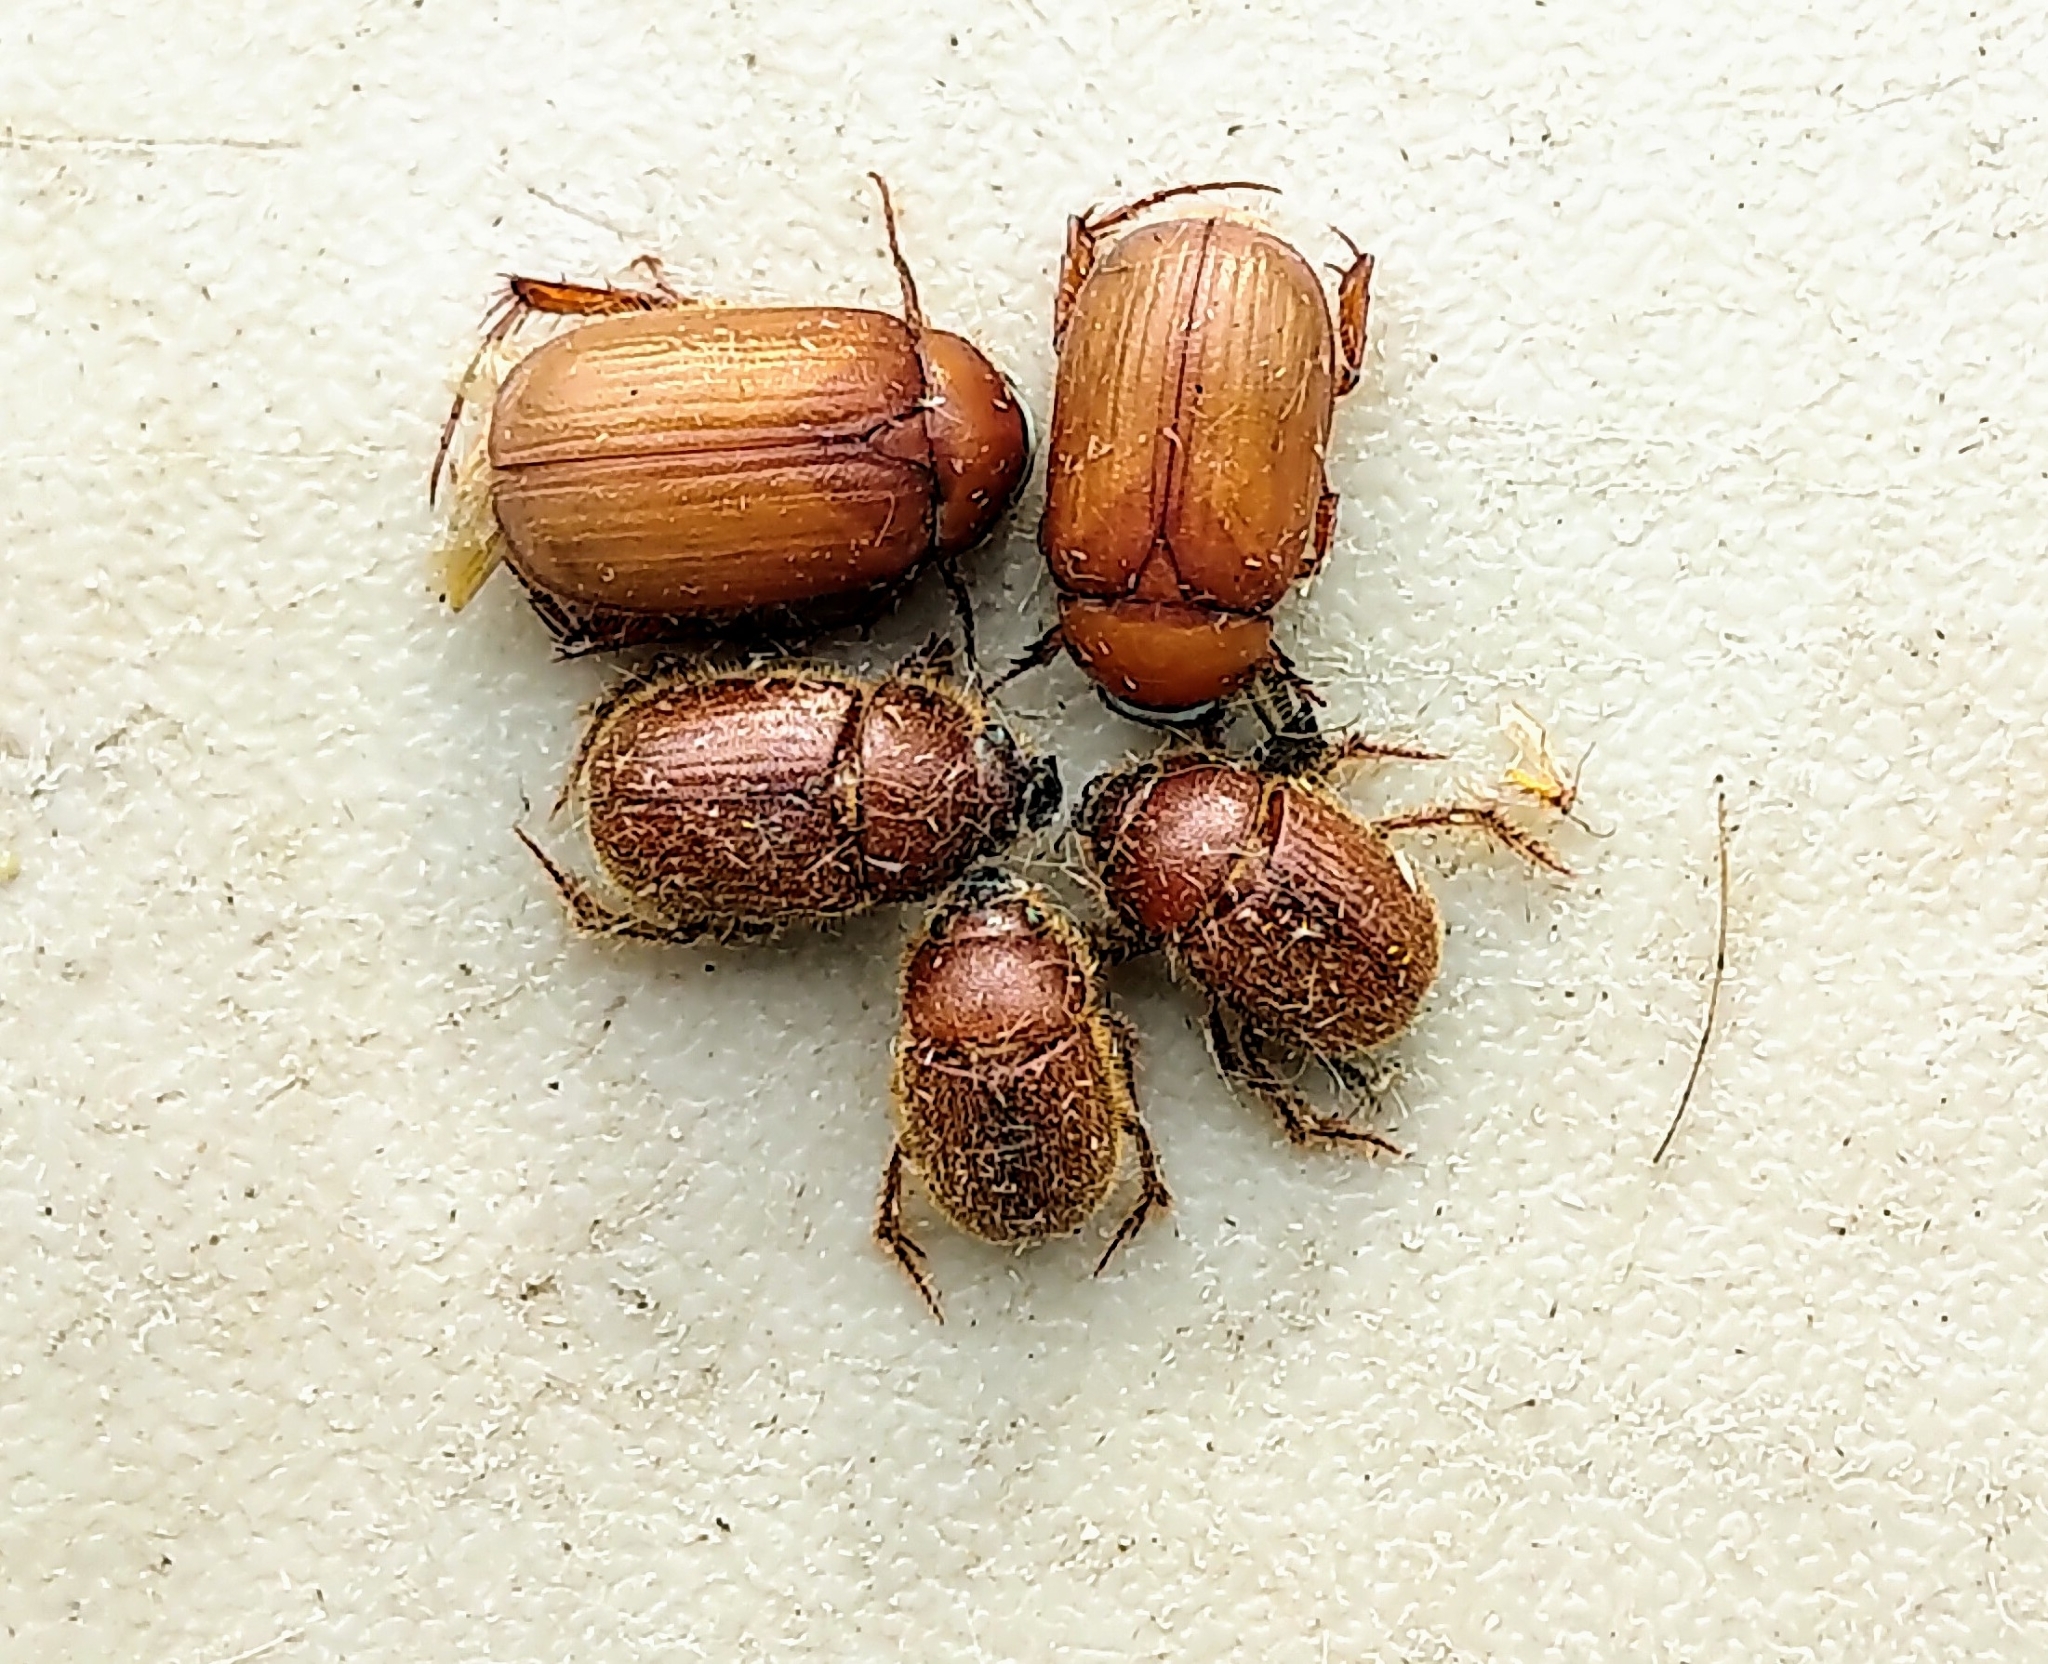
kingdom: Animalia
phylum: Arthropoda
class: Insecta
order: Coleoptera
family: Scarabaeidae
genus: Serica
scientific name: Serica curvata
